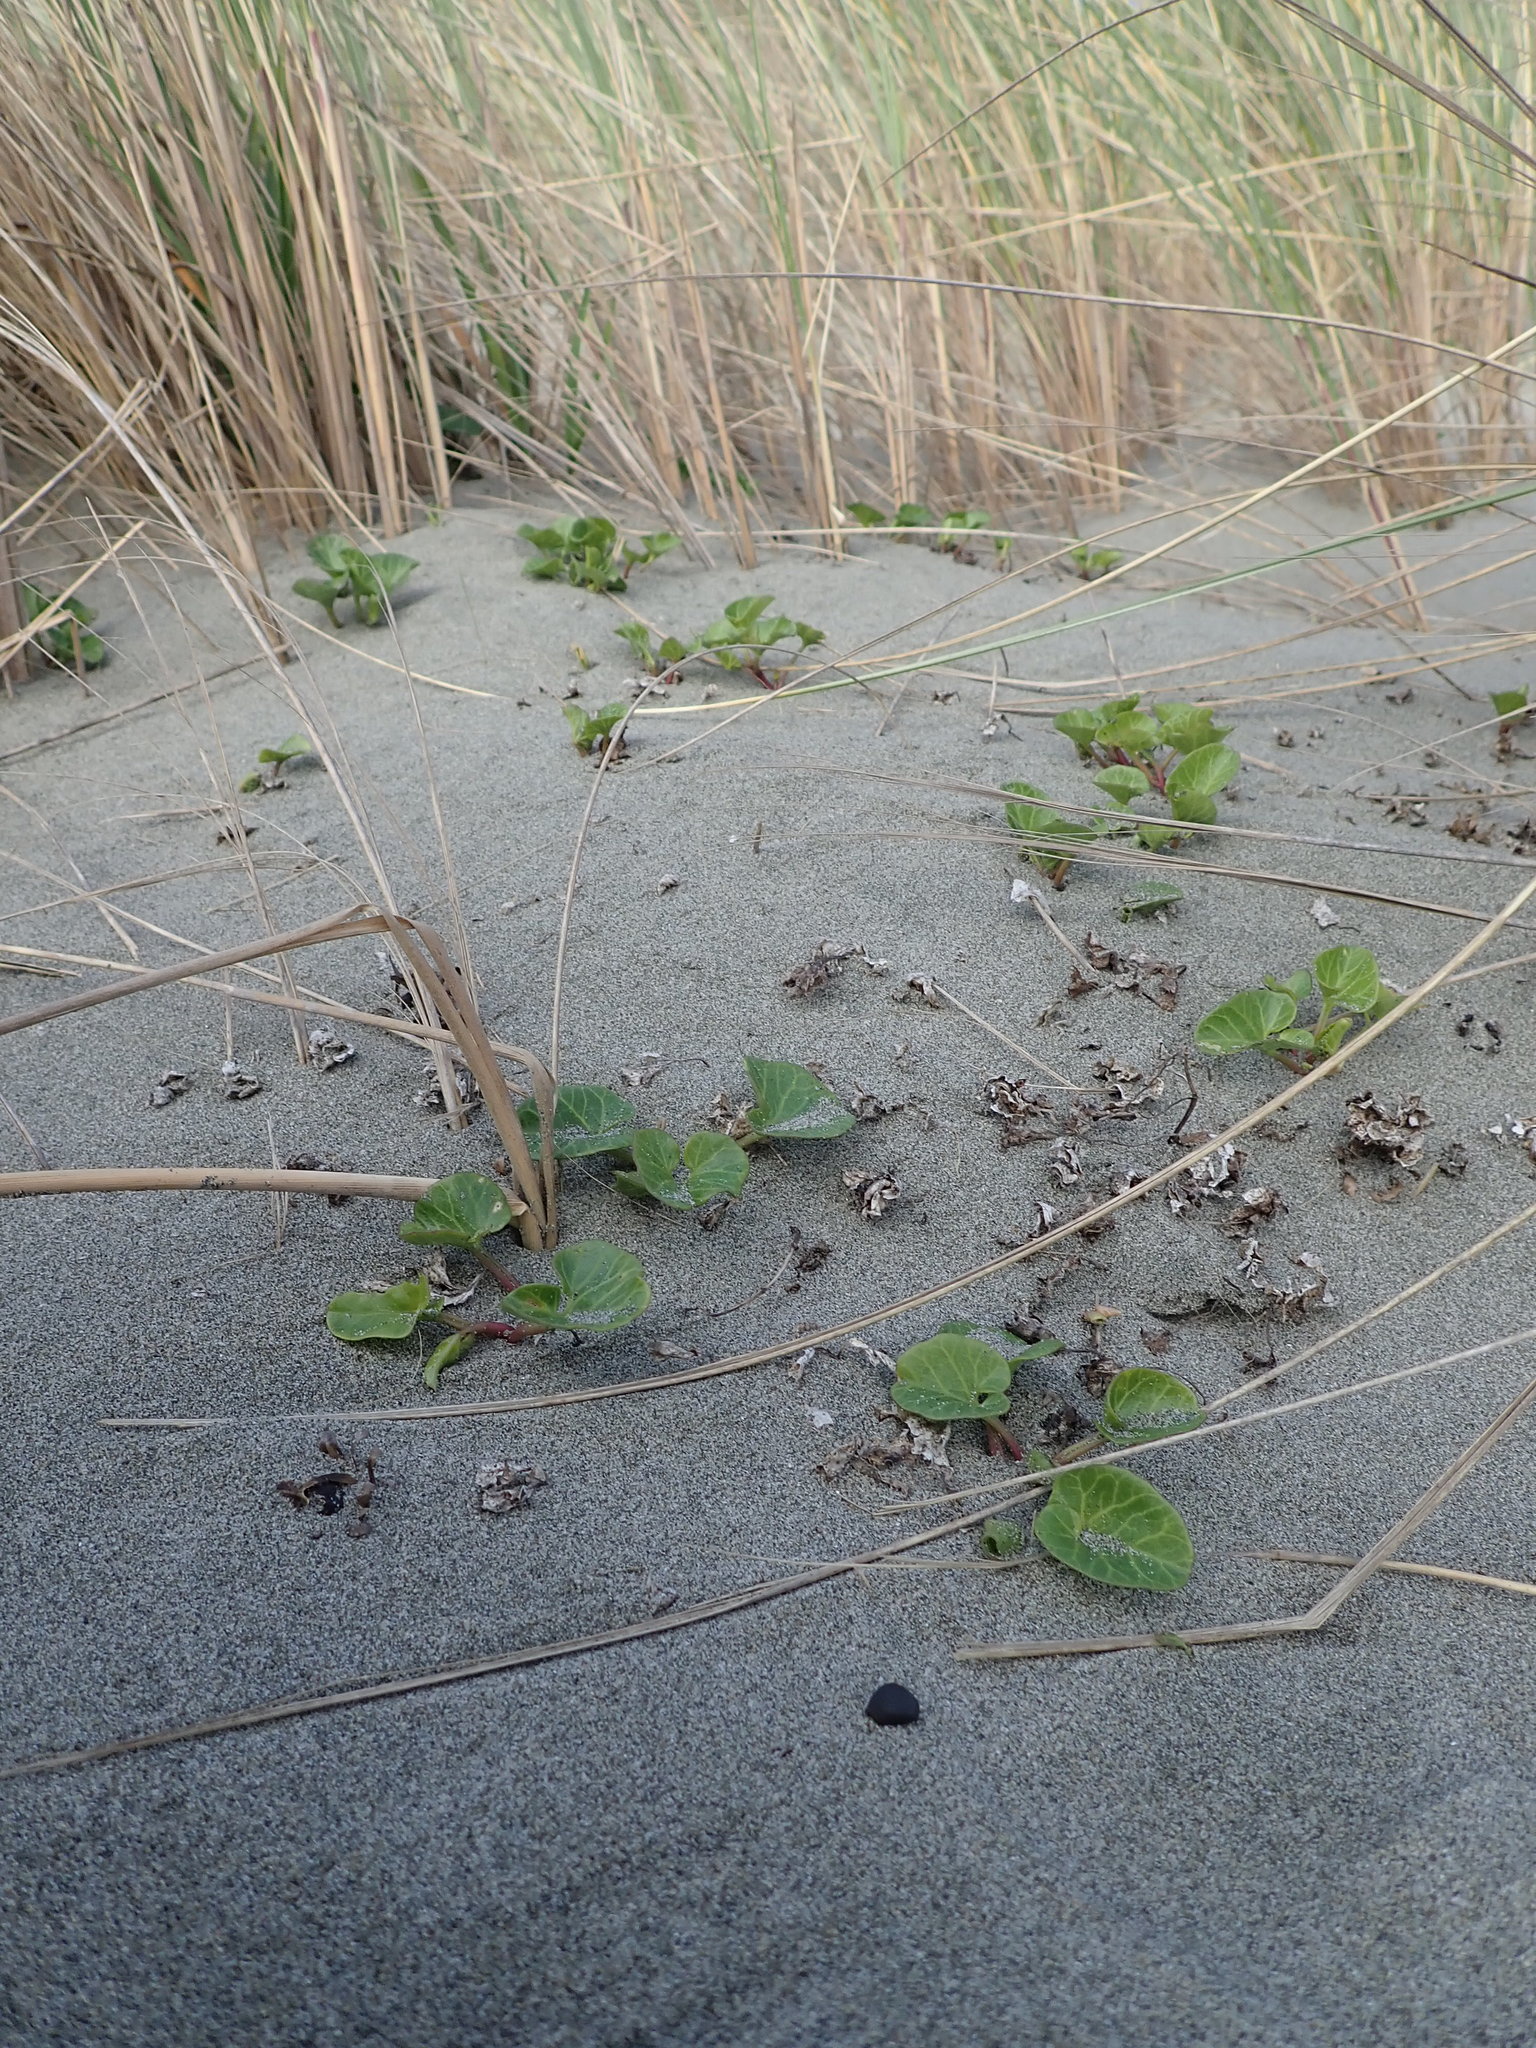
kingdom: Plantae
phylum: Tracheophyta
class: Magnoliopsida
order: Solanales
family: Convolvulaceae
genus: Calystegia
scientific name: Calystegia soldanella
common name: Sea bindweed
